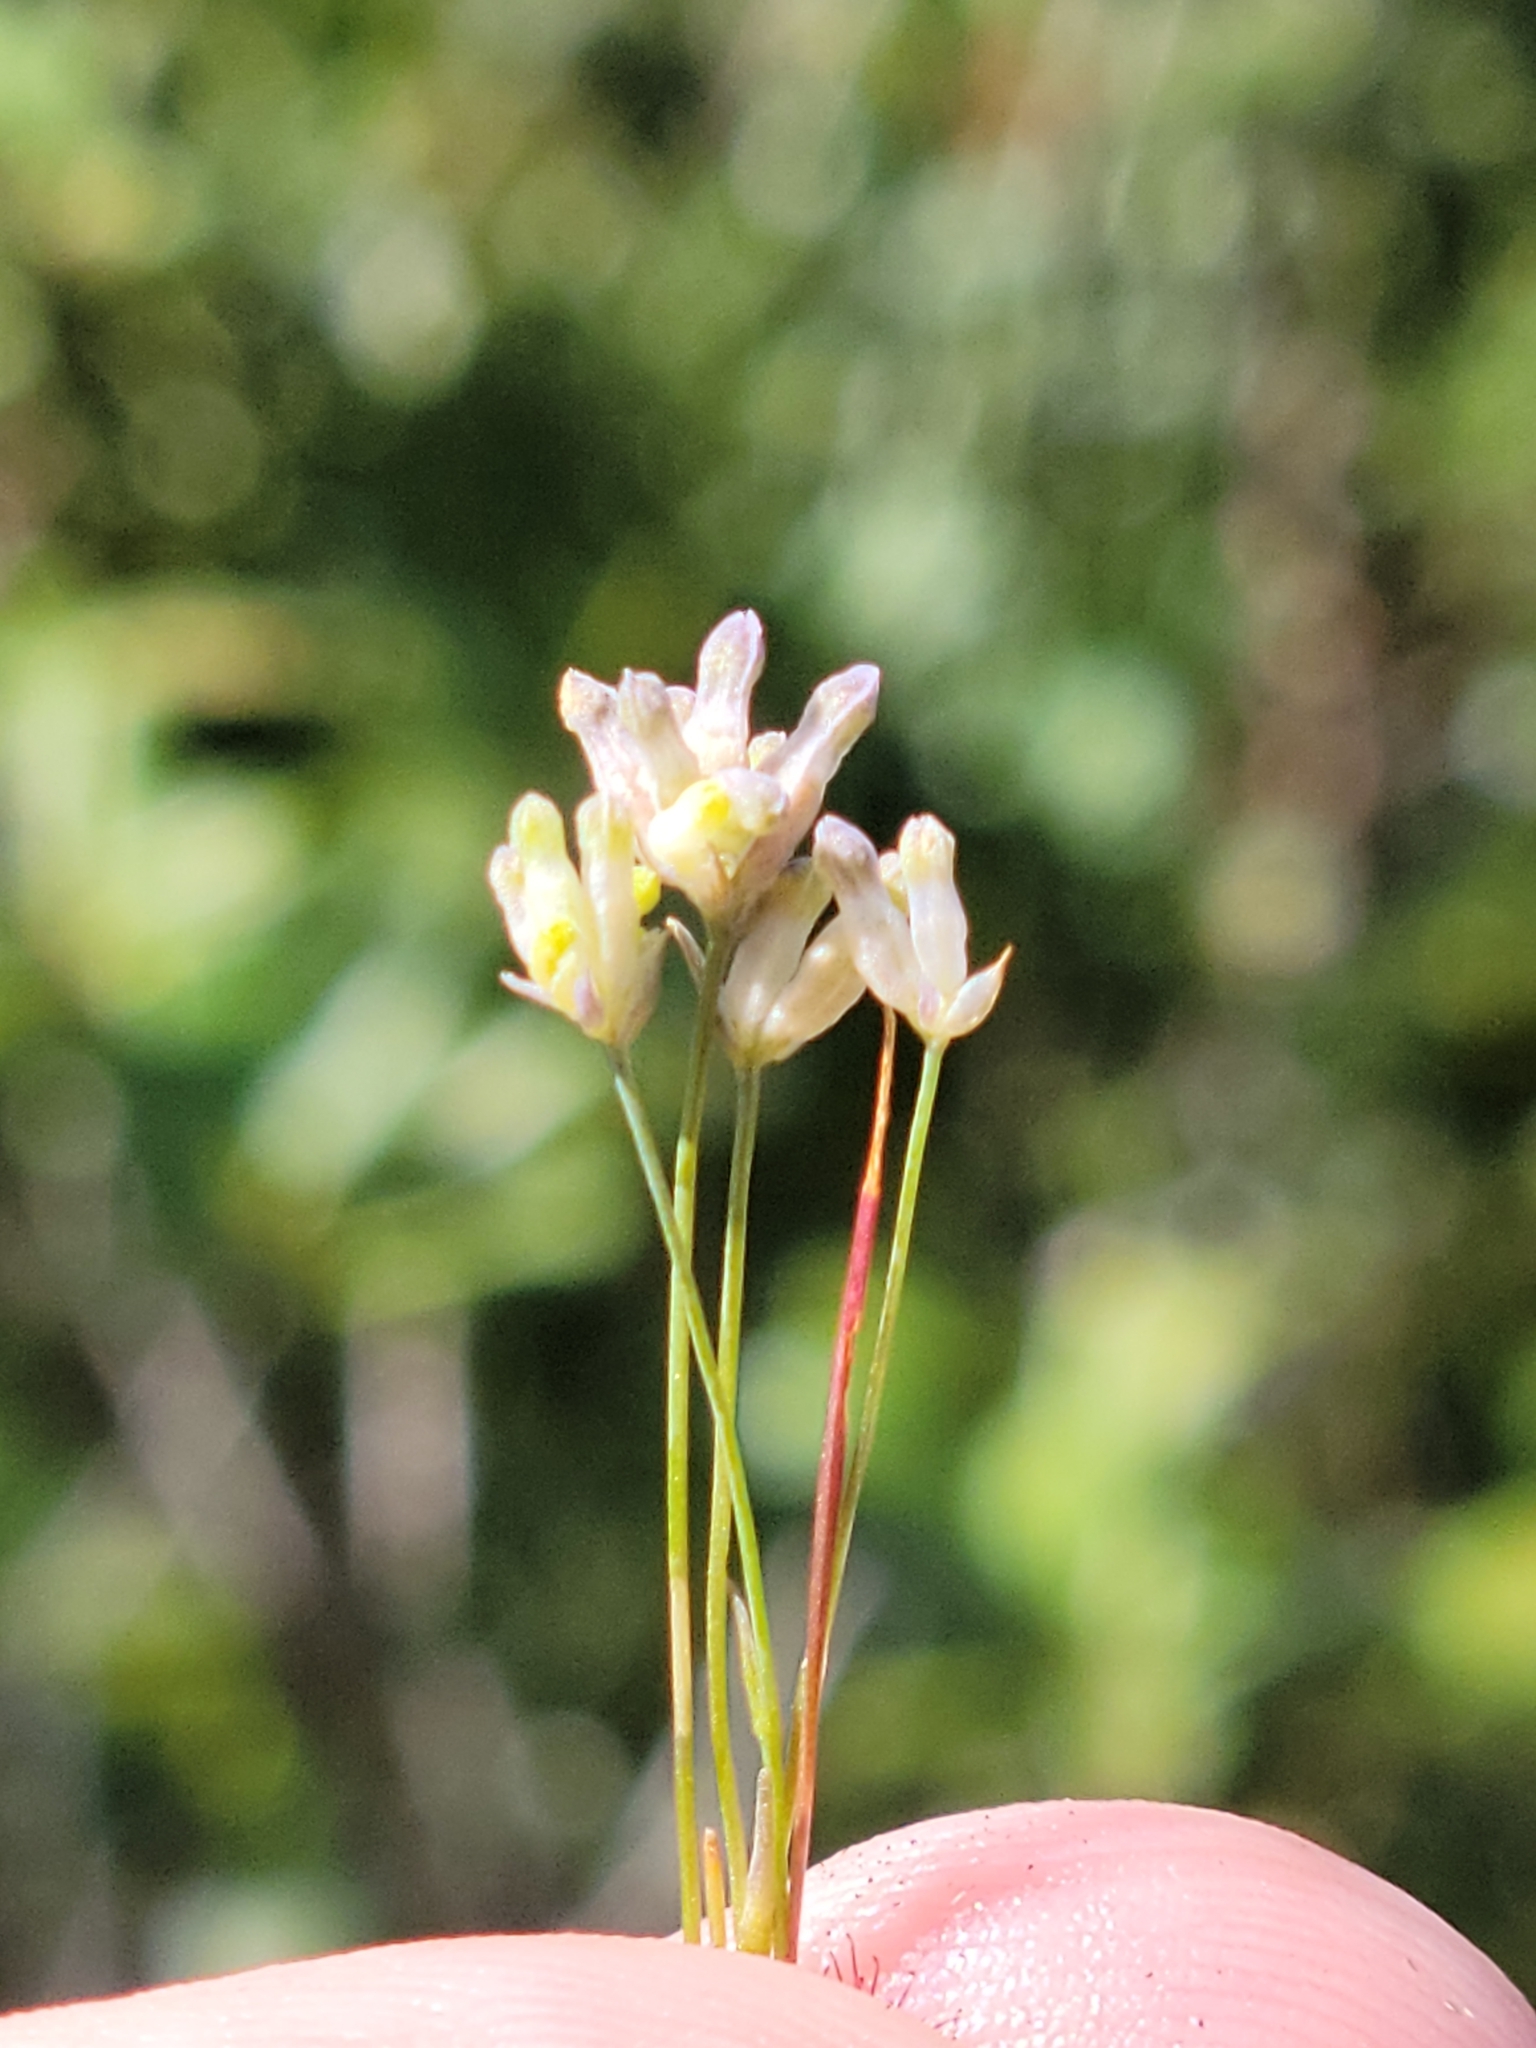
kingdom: Plantae
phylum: Tracheophyta
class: Liliopsida
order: Dioscoreales
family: Burmanniaceae
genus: Burmannia
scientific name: Burmannia capitata
